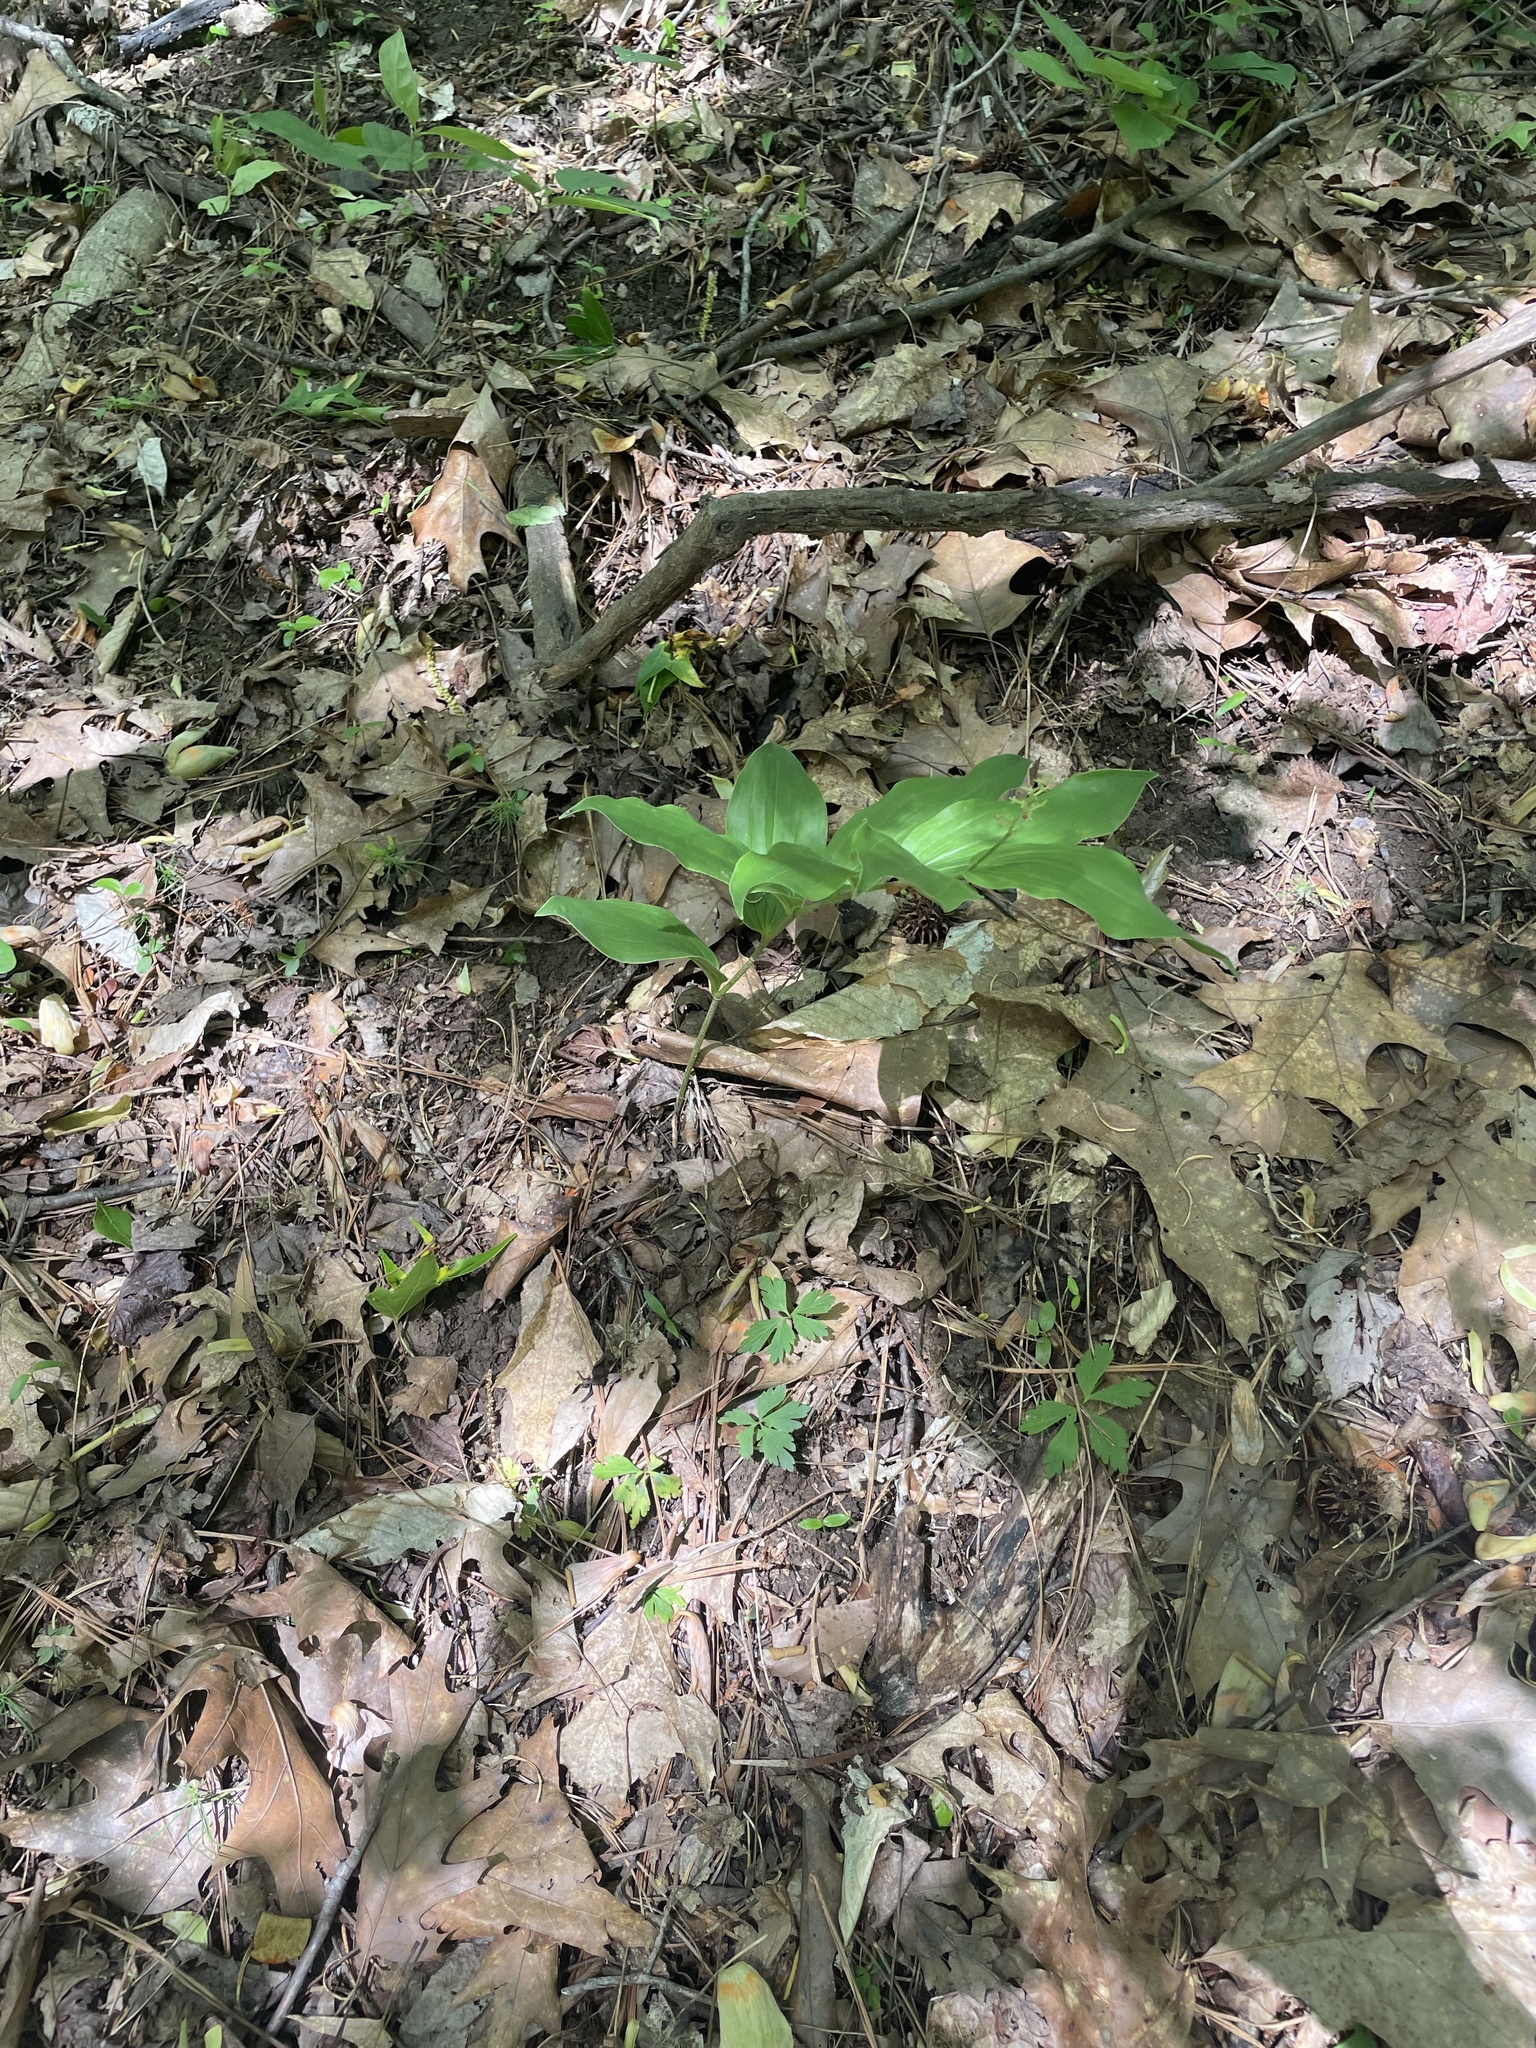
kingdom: Plantae
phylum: Tracheophyta
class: Liliopsida
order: Asparagales
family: Asparagaceae
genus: Maianthemum
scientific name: Maianthemum racemosum
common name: False spikenard
